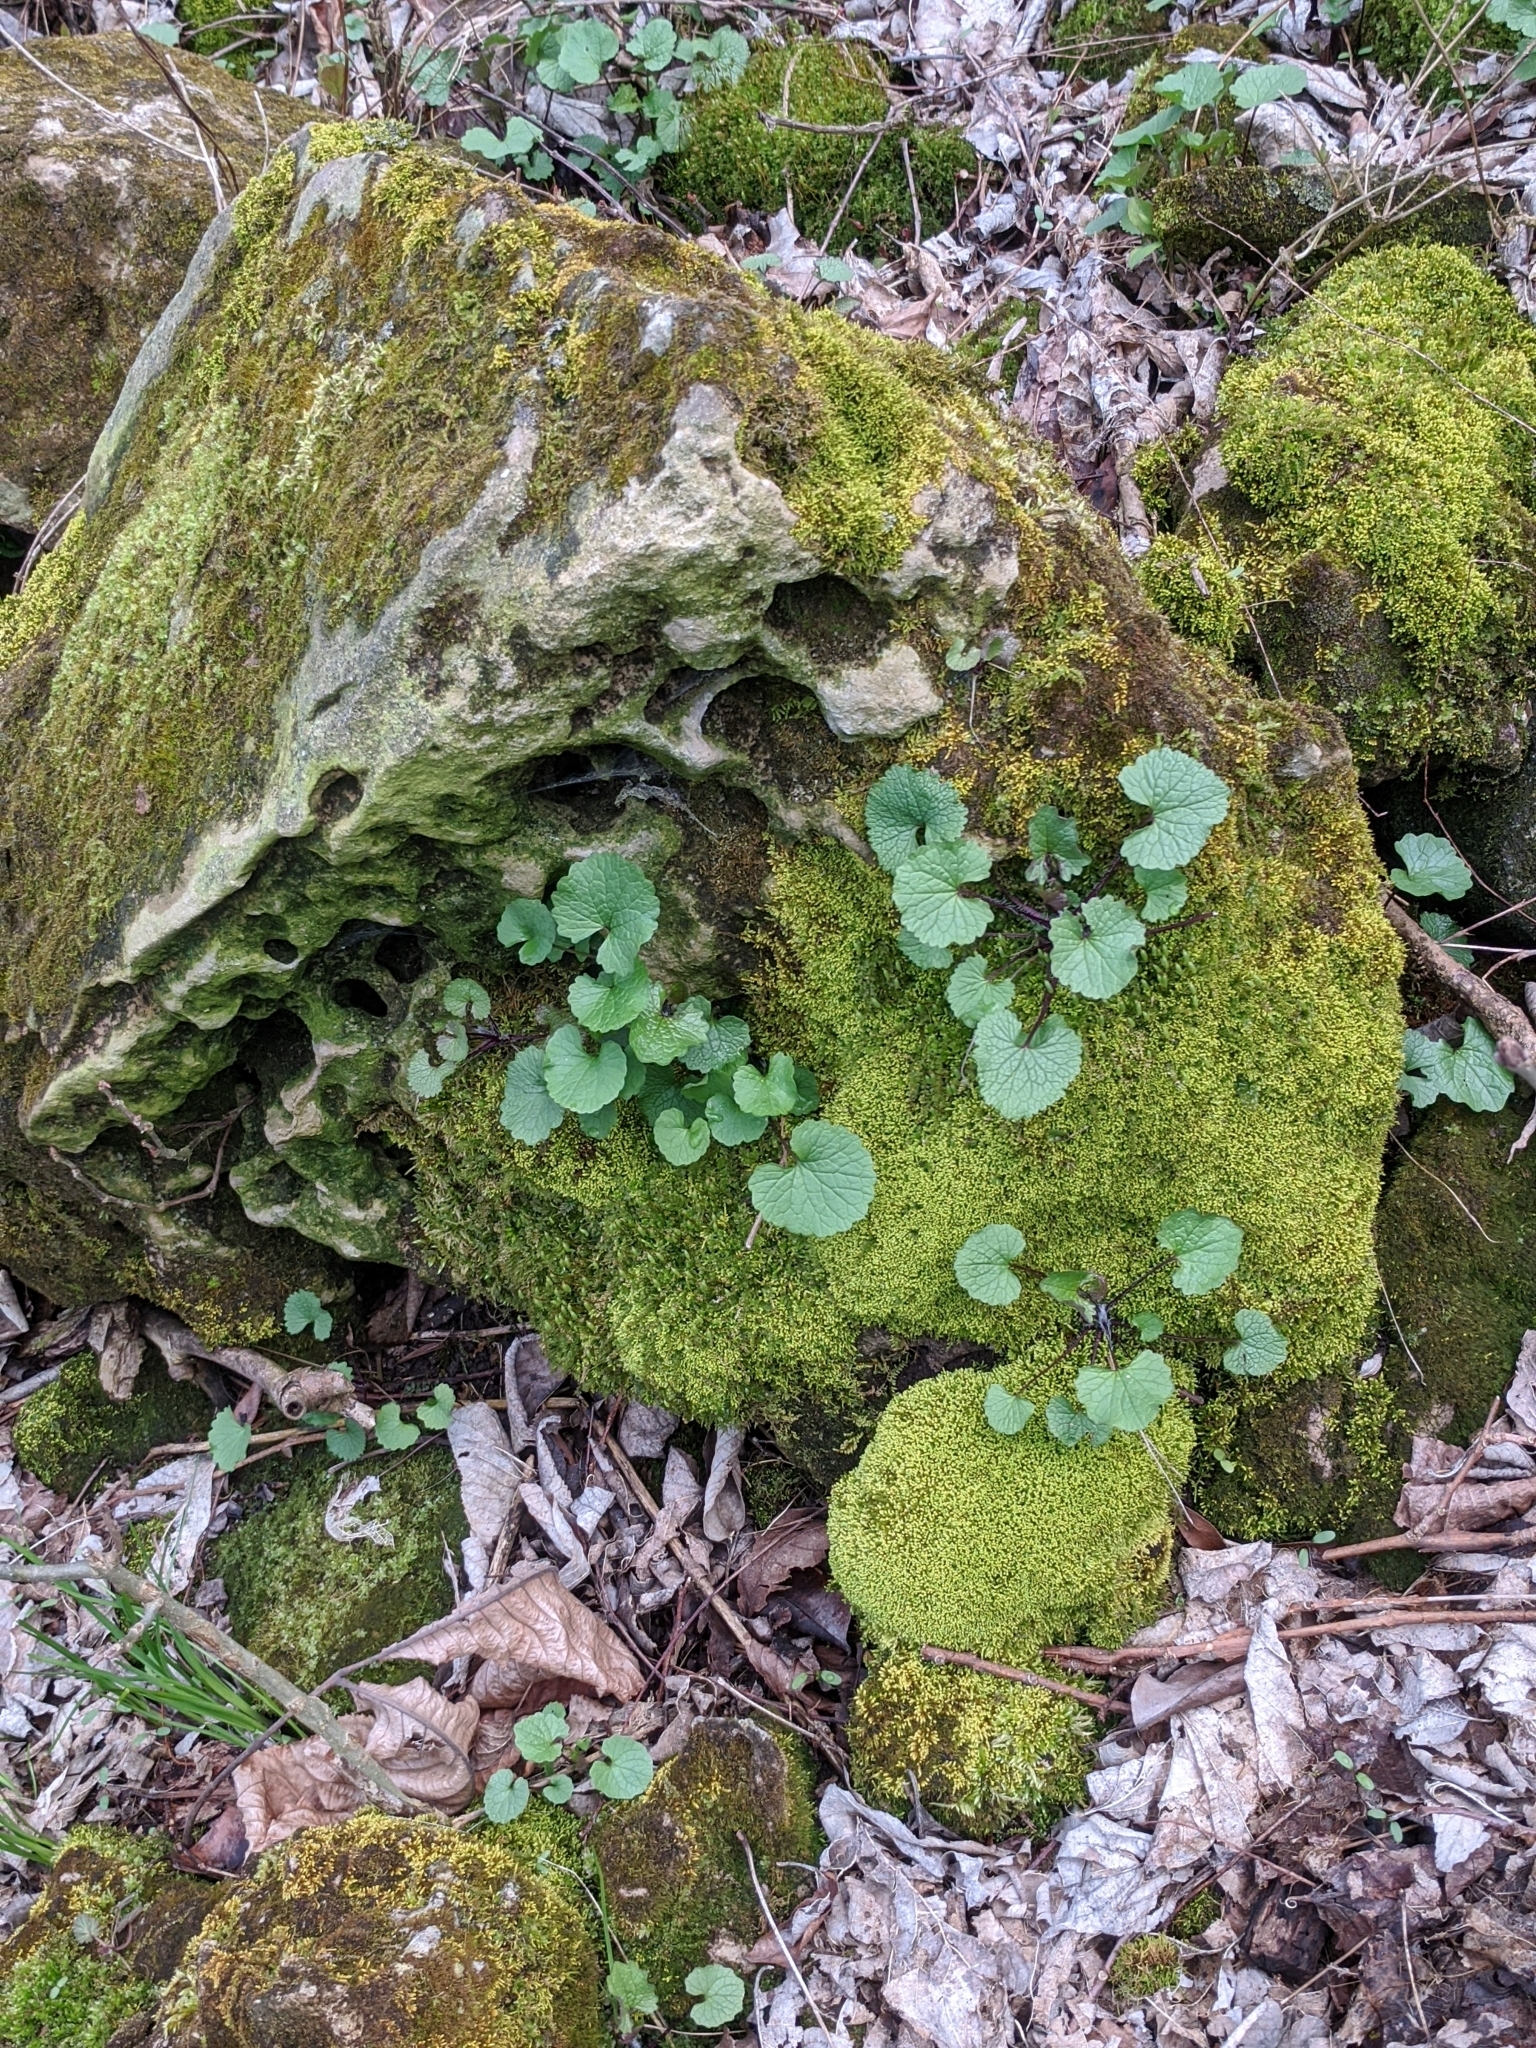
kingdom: Plantae
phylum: Tracheophyta
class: Magnoliopsida
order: Brassicales
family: Brassicaceae
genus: Alliaria
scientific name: Alliaria petiolata
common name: Garlic mustard
